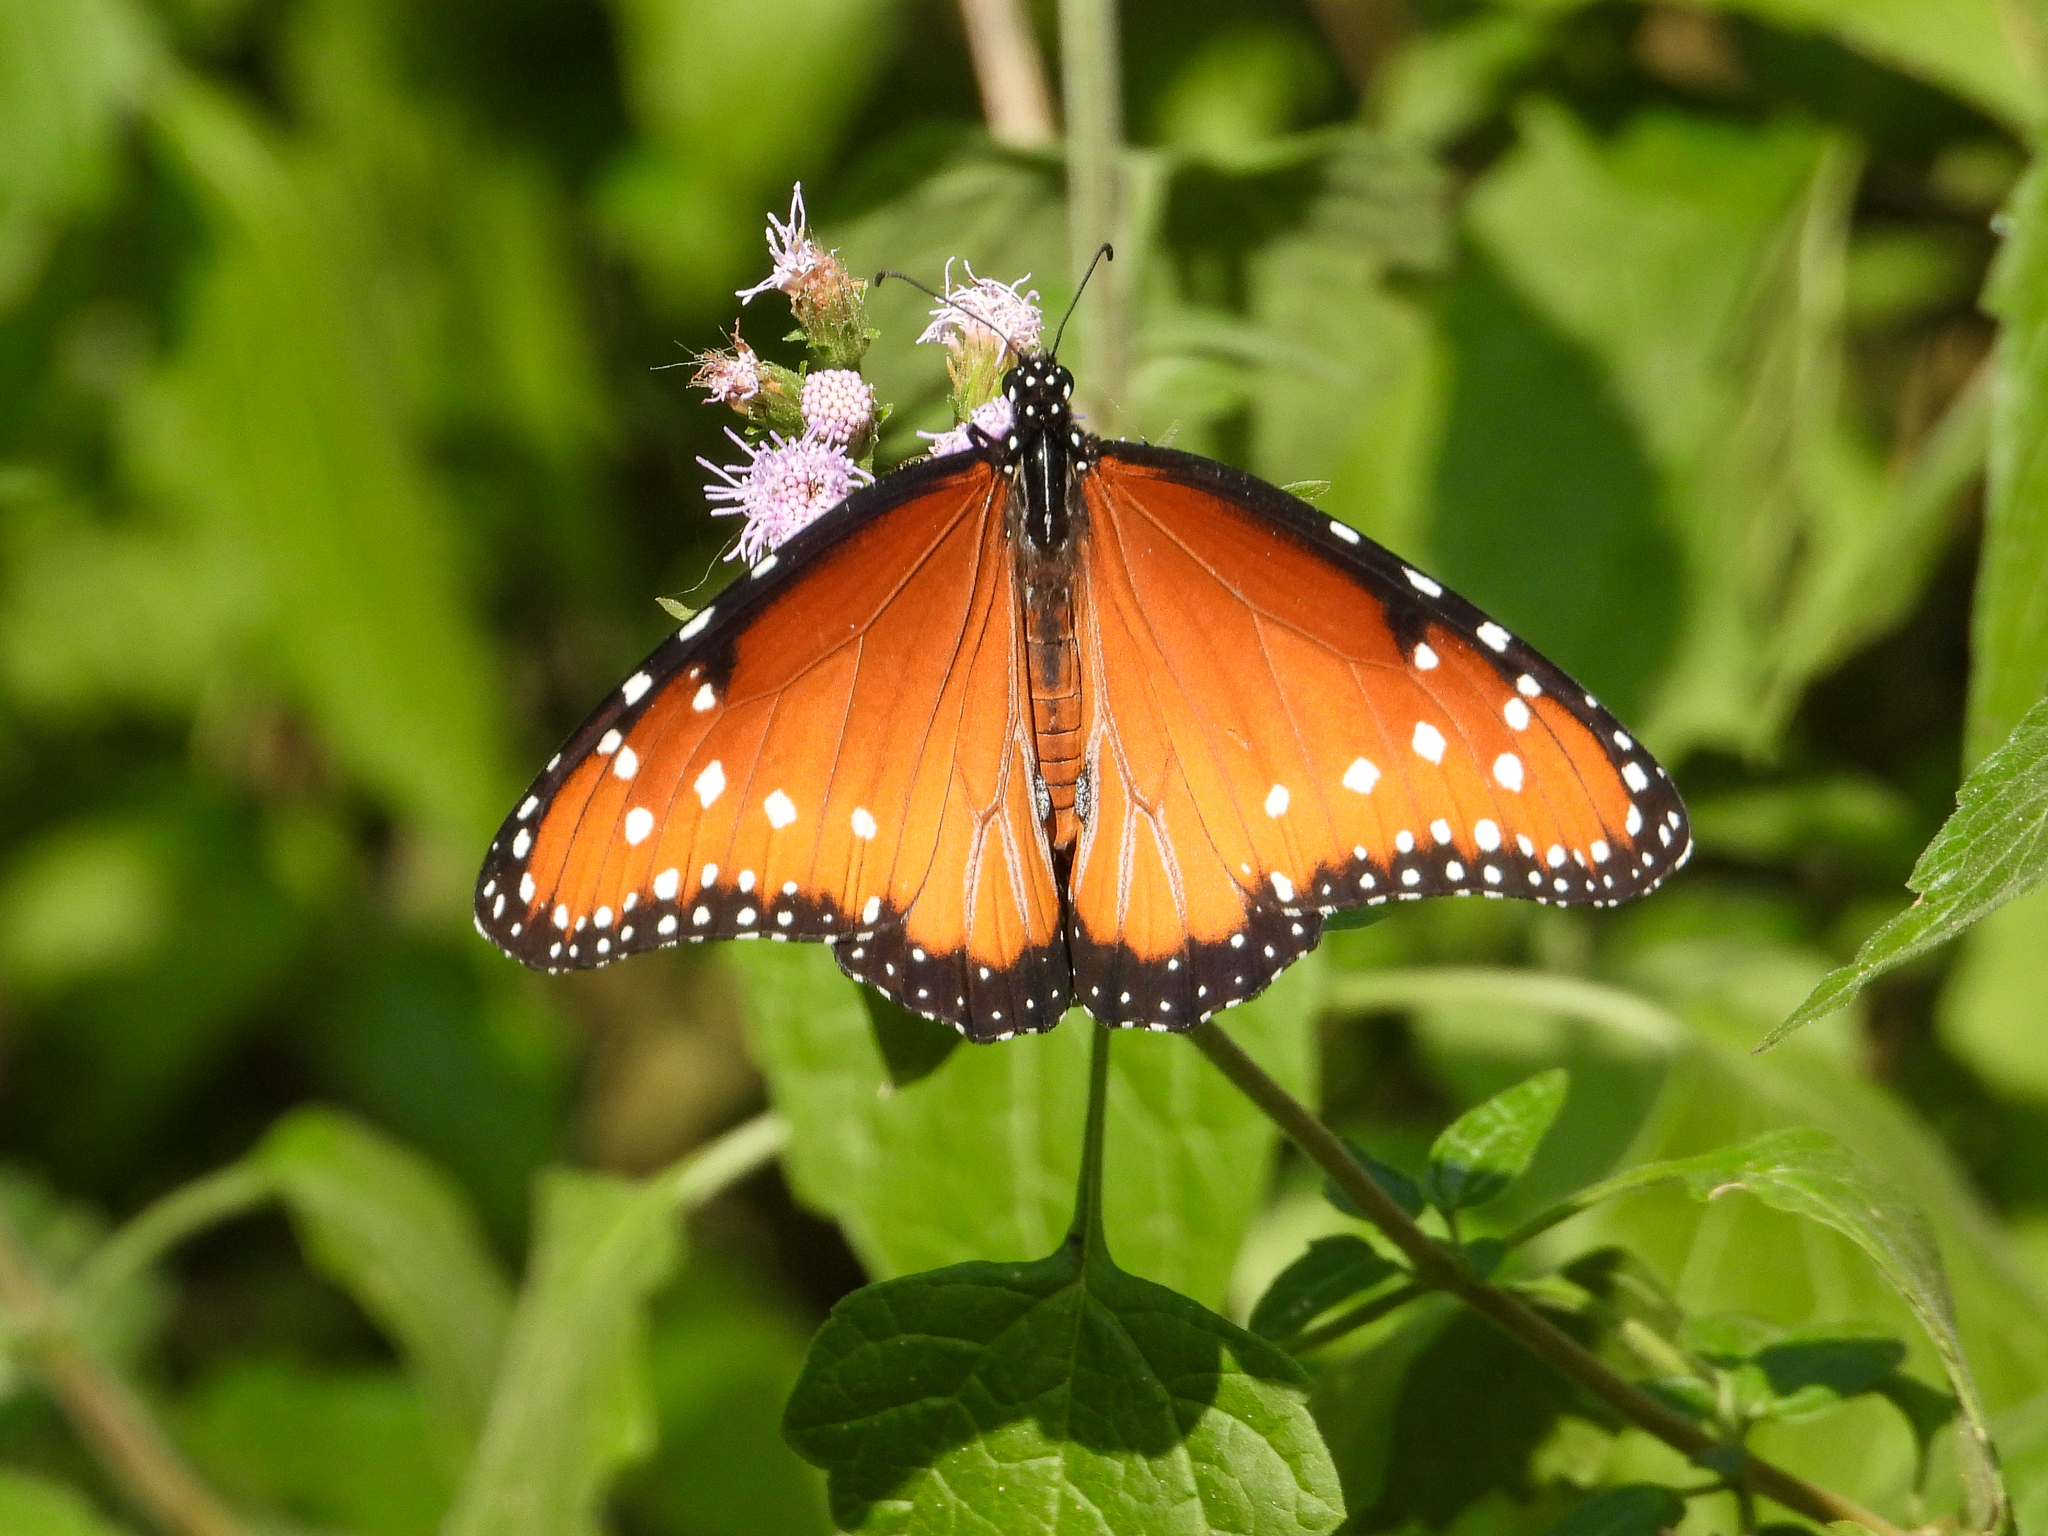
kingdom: Animalia
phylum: Arthropoda
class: Insecta
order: Lepidoptera
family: Nymphalidae
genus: Danaus
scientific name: Danaus gilippus
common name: Queen
